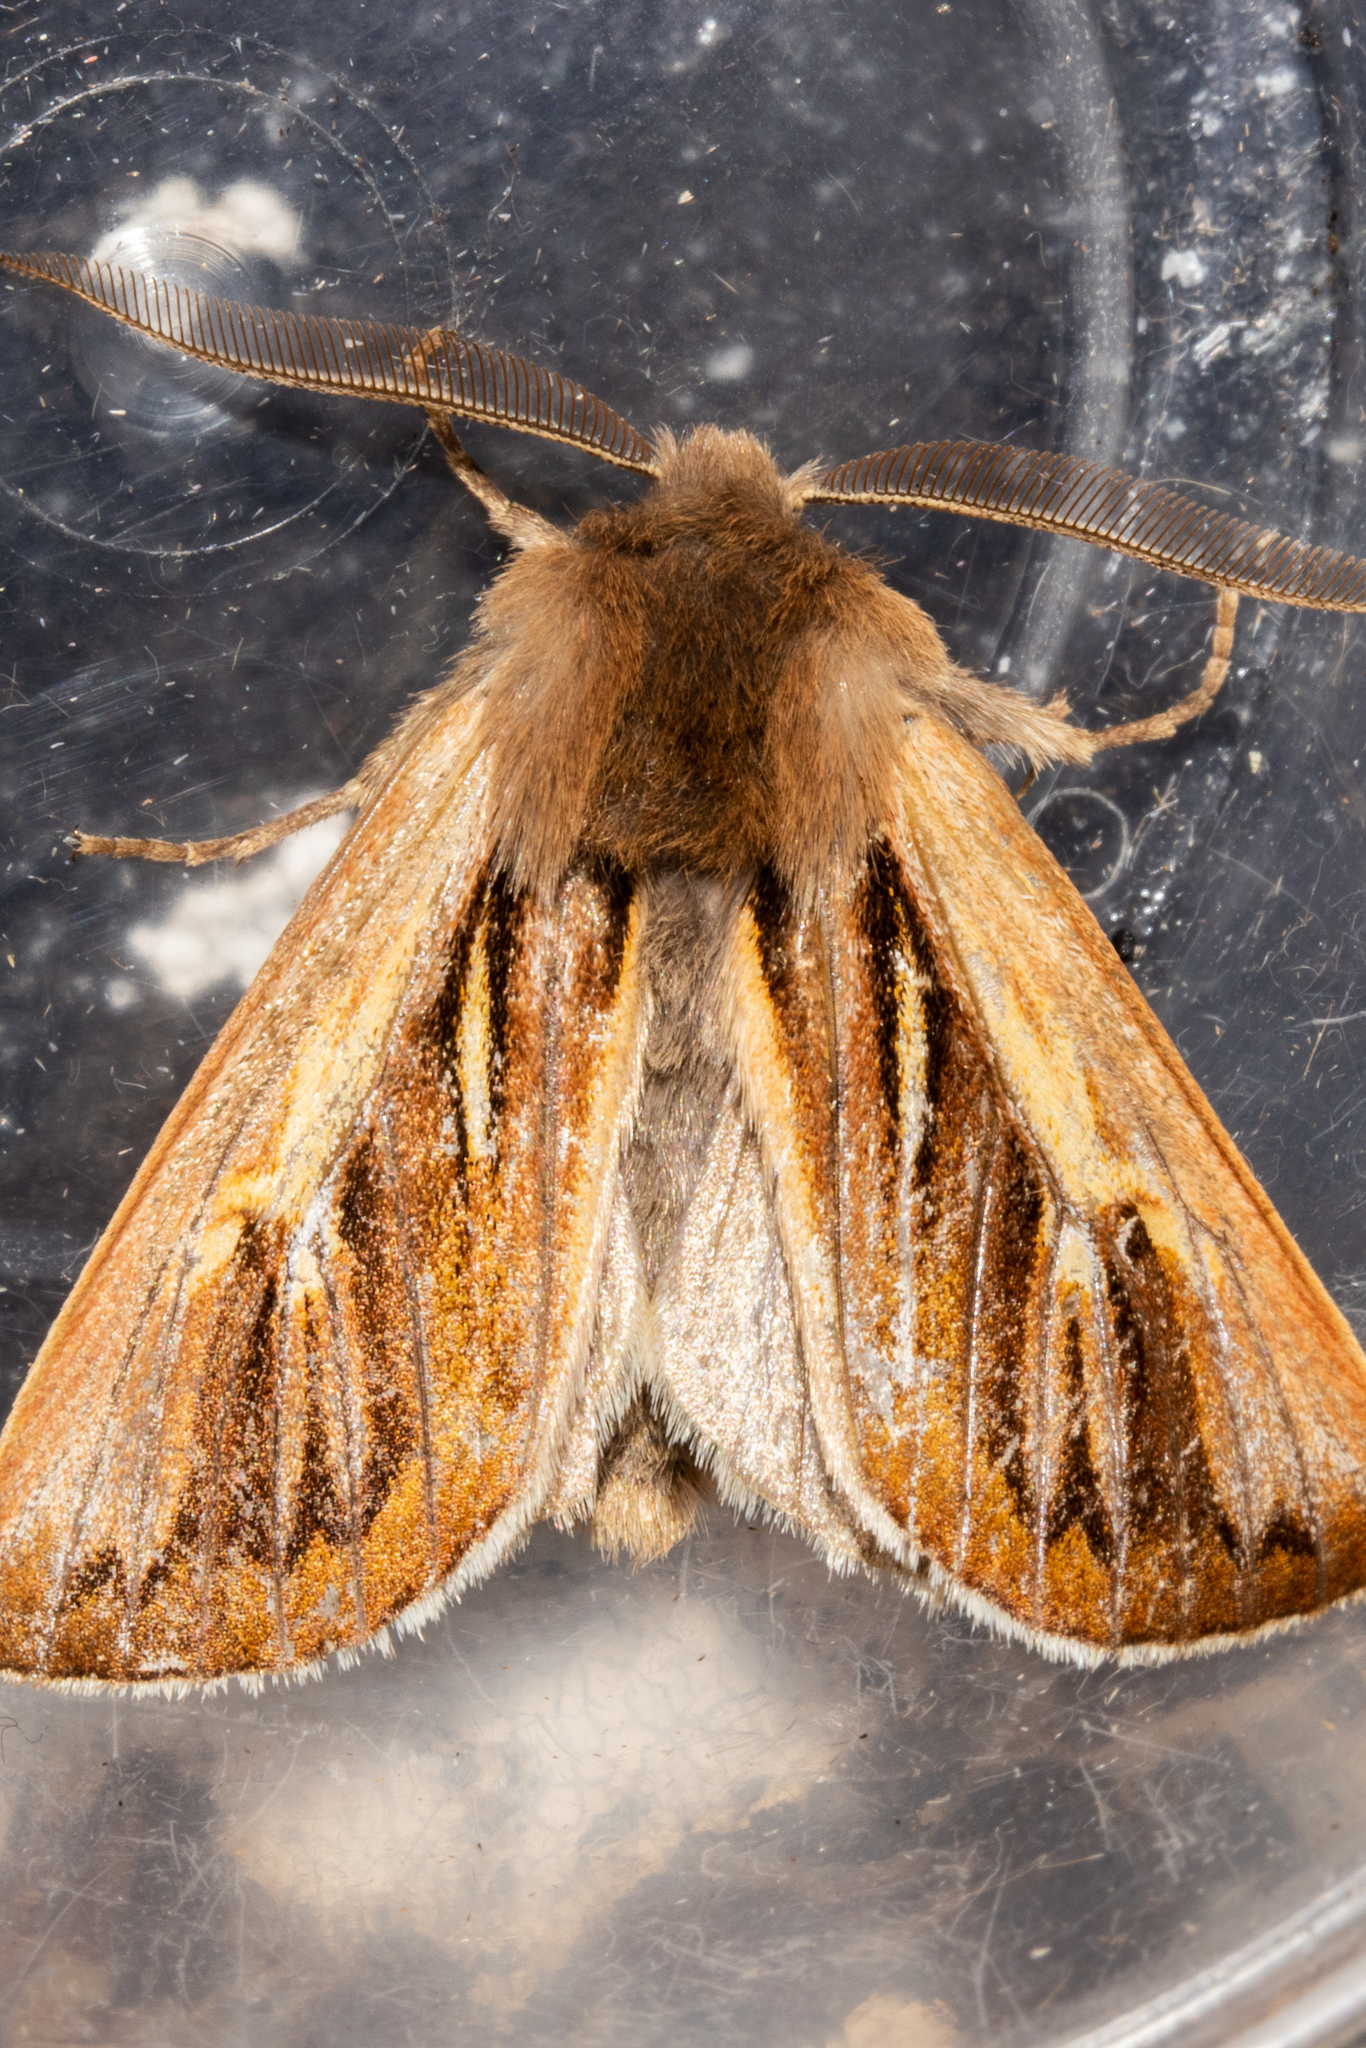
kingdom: Animalia
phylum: Arthropoda
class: Insecta
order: Lepidoptera
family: Noctuidae
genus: Ichneutica
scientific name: Ichneutica dione
